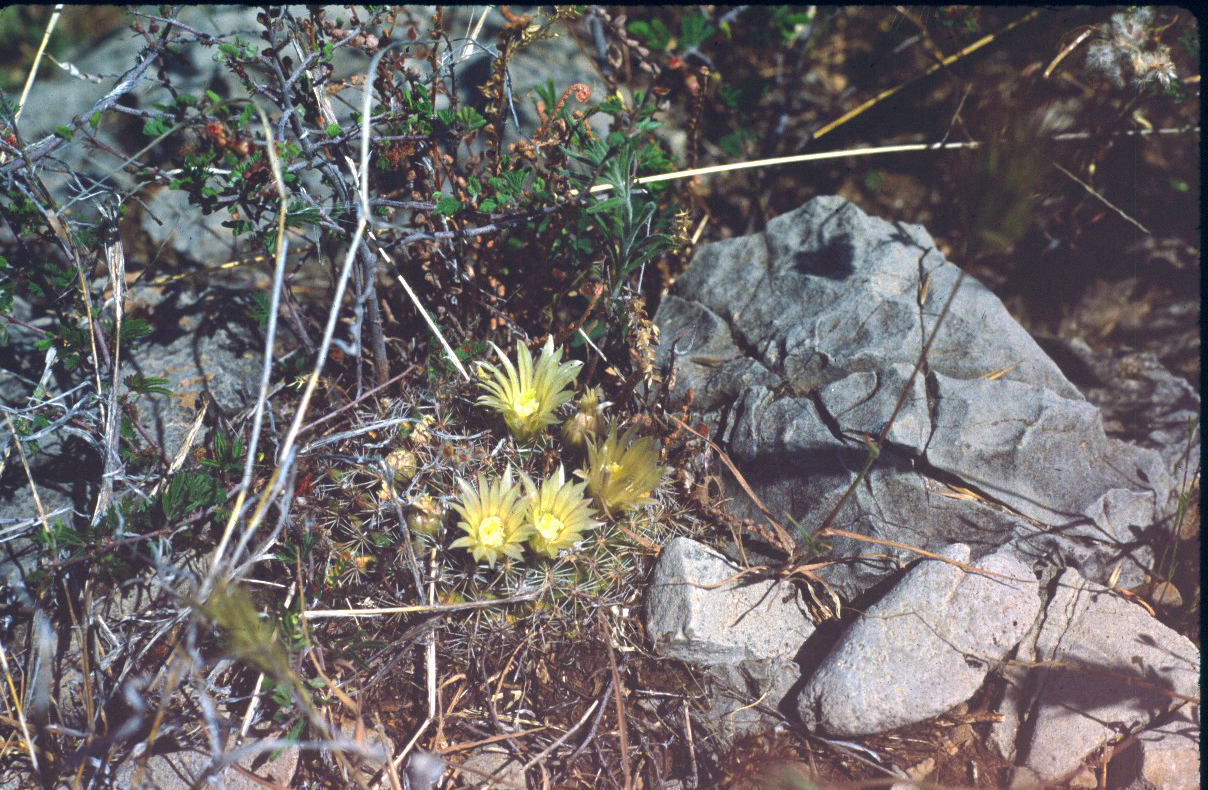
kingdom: Plantae
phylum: Tracheophyta
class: Magnoliopsida
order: Caryophyllales
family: Cactaceae
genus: Mammillaria
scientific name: Mammillaria heyderi
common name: Little nipple cactus
